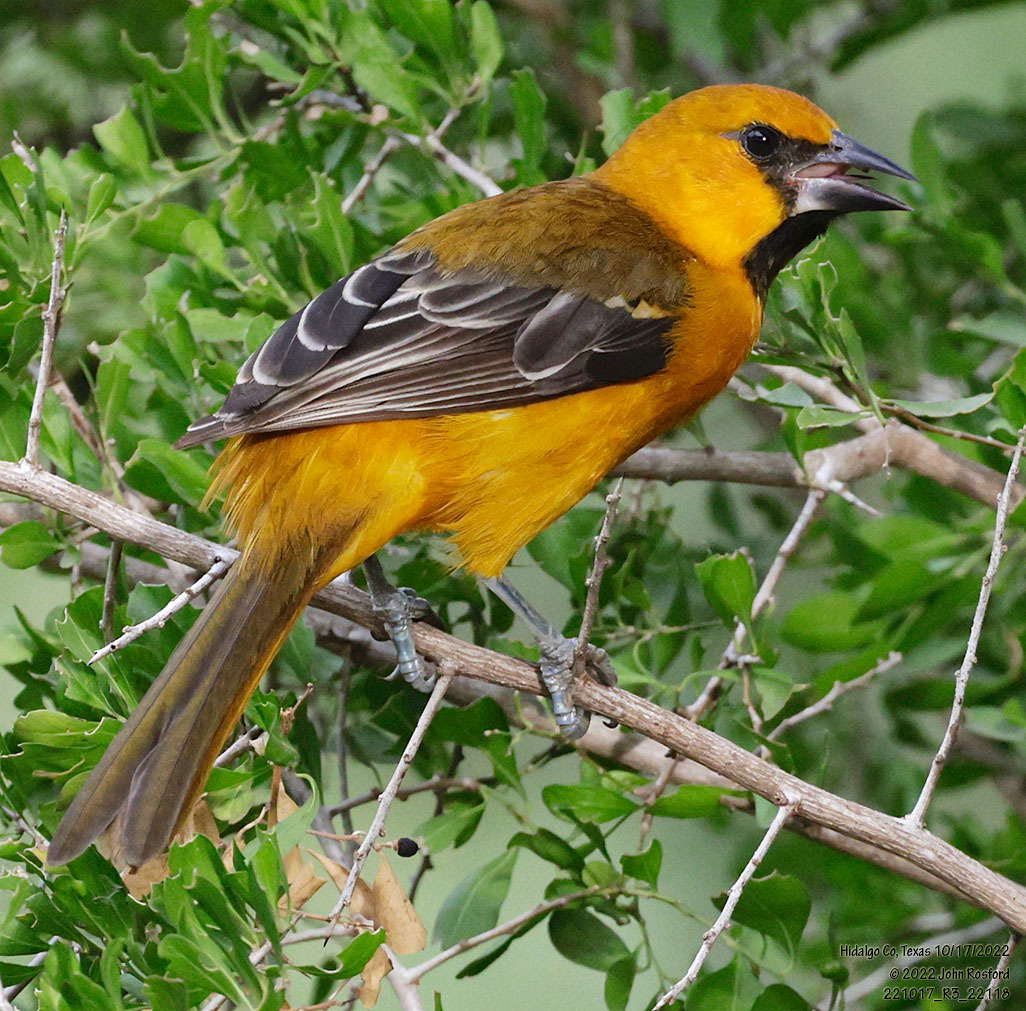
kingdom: Animalia
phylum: Chordata
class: Aves
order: Passeriformes
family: Icteridae
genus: Icterus
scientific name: Icterus gularis
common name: Altamira oriole
